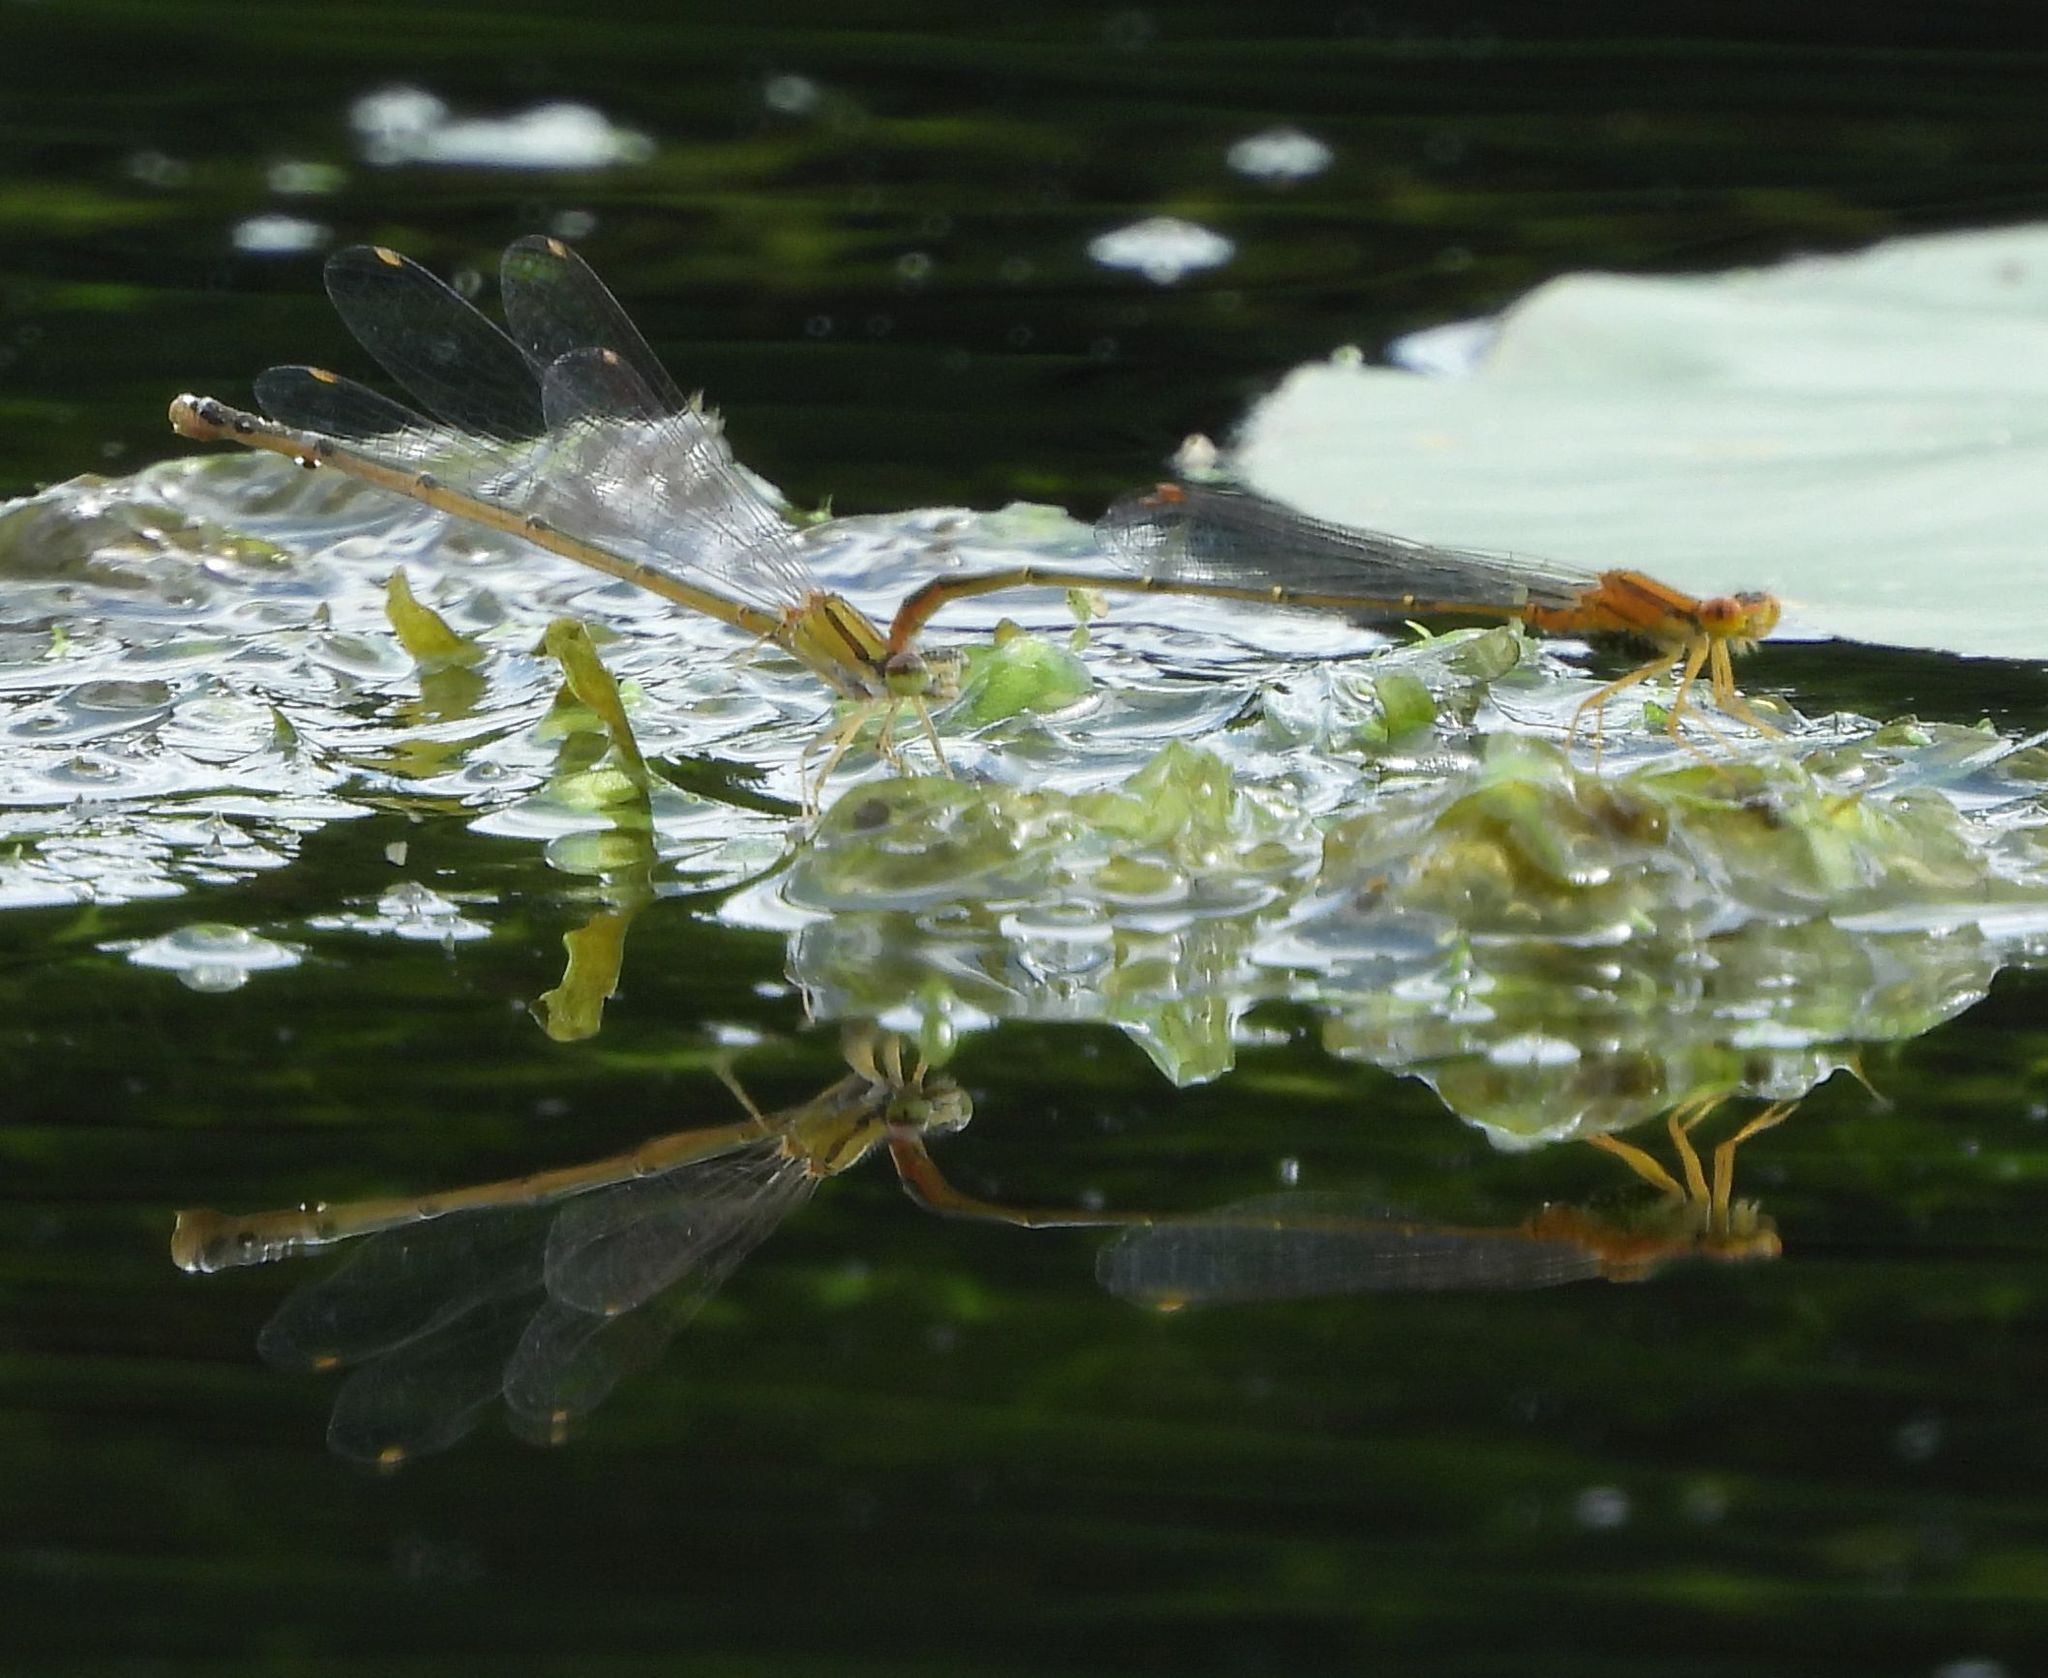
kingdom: Animalia
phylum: Arthropoda
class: Insecta
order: Odonata
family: Coenagrionidae
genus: Enallagma
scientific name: Enallagma signatum
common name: Orange bluet
